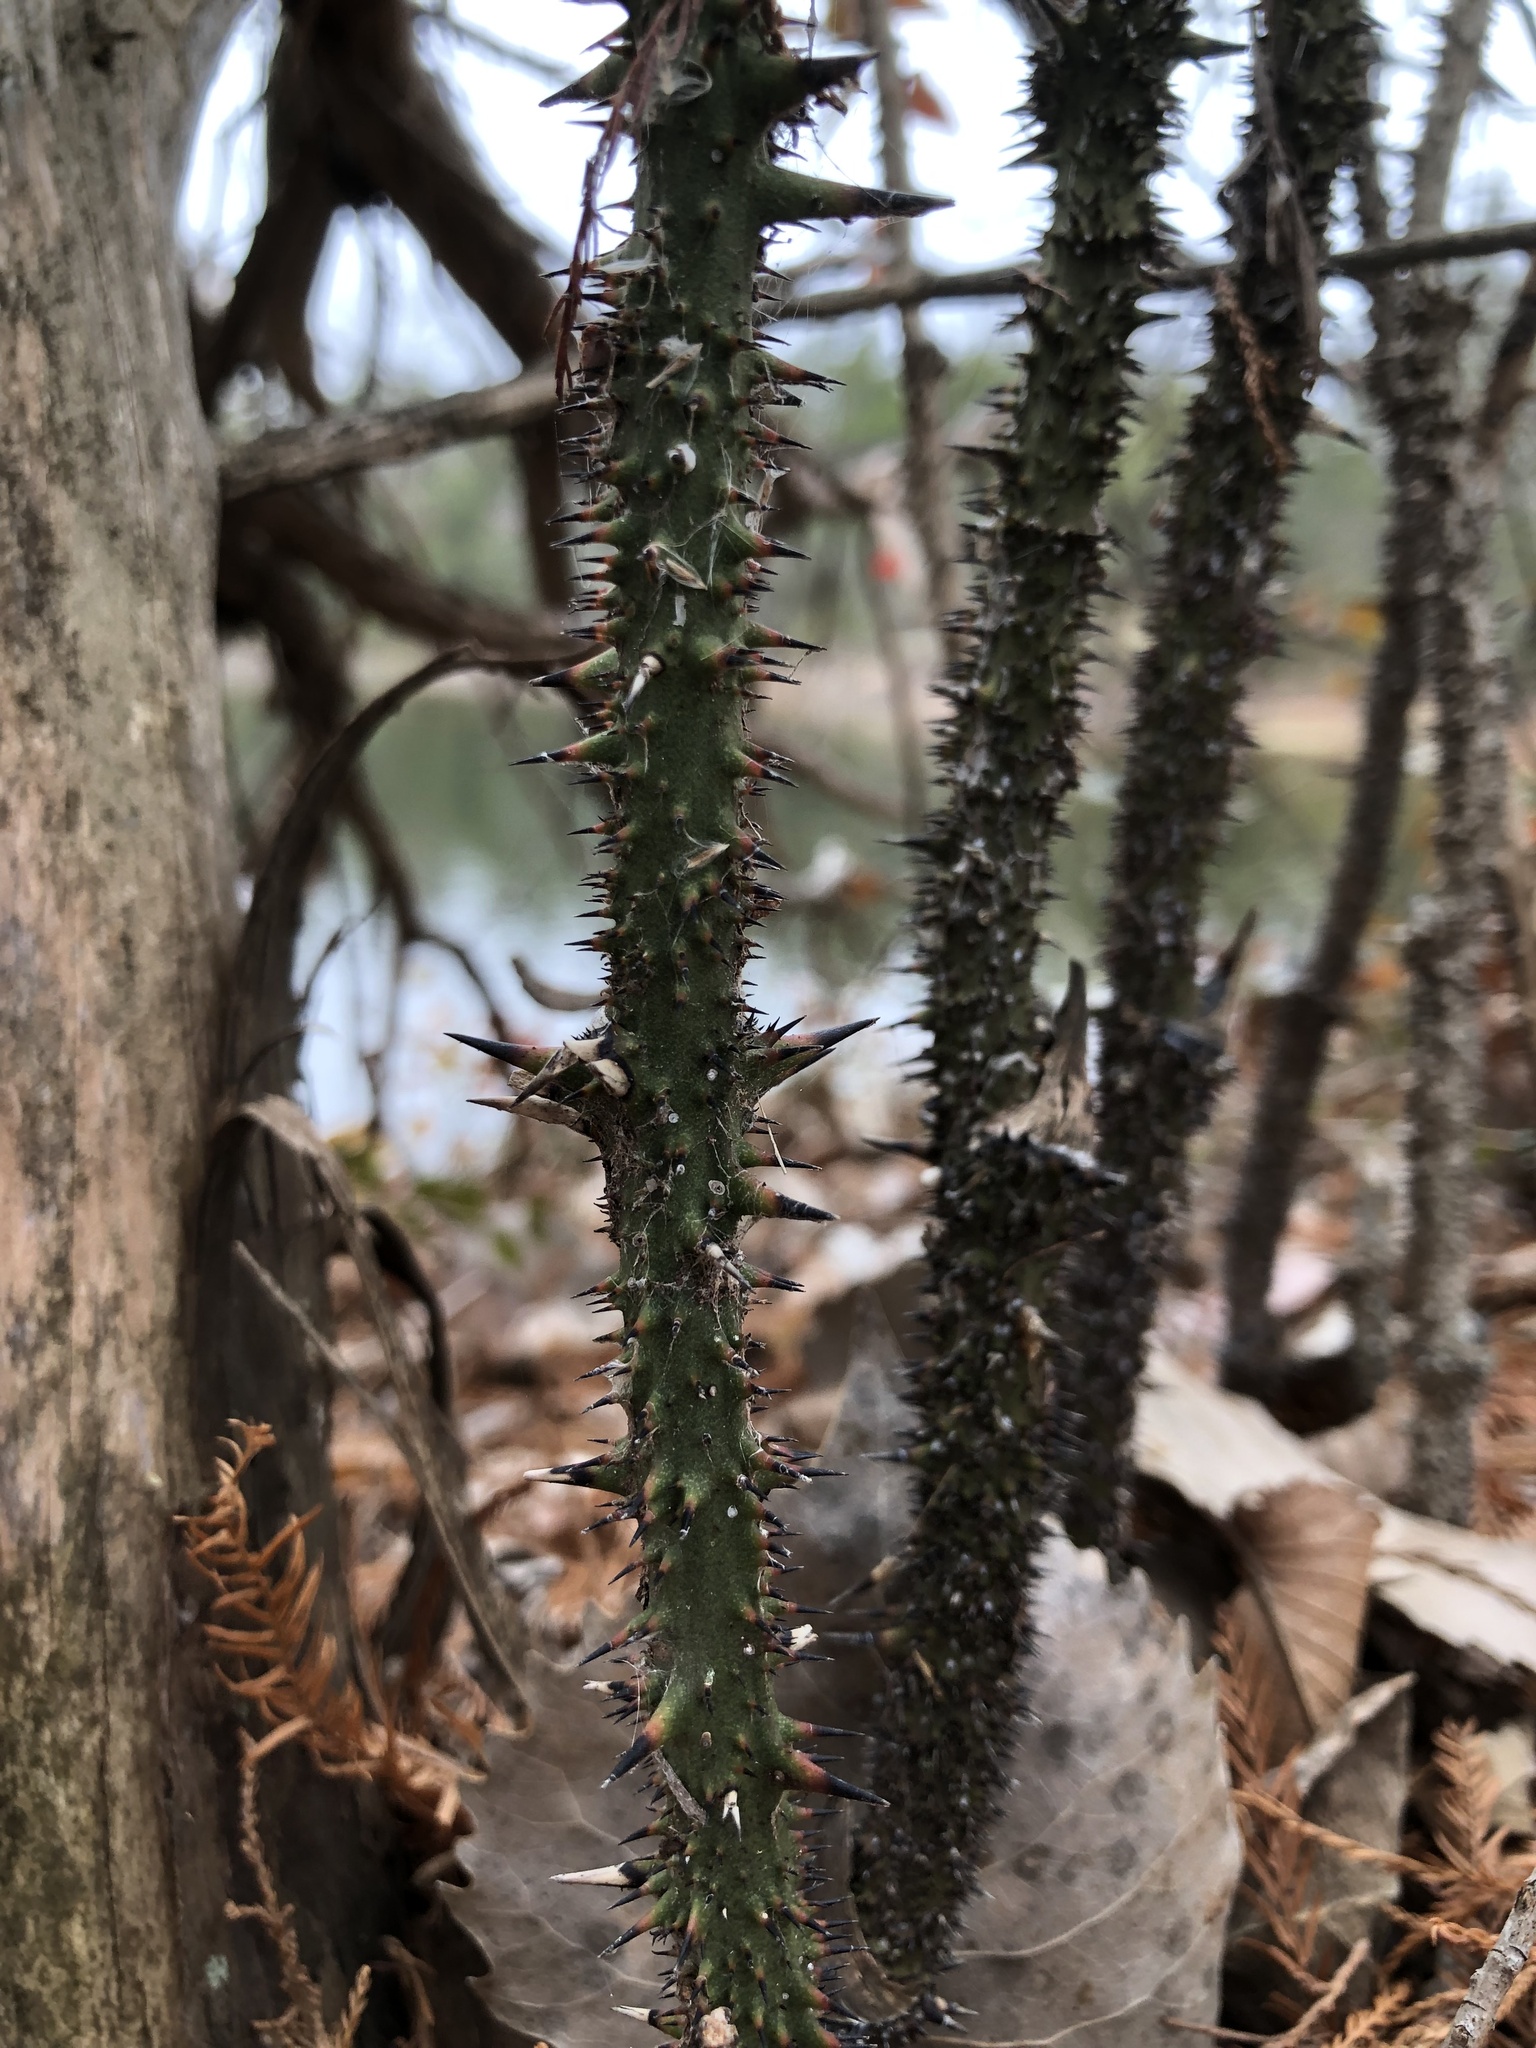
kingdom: Plantae
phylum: Tracheophyta
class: Liliopsida
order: Liliales
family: Smilacaceae
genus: Smilax
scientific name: Smilax tamnoides
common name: Hellfetter
